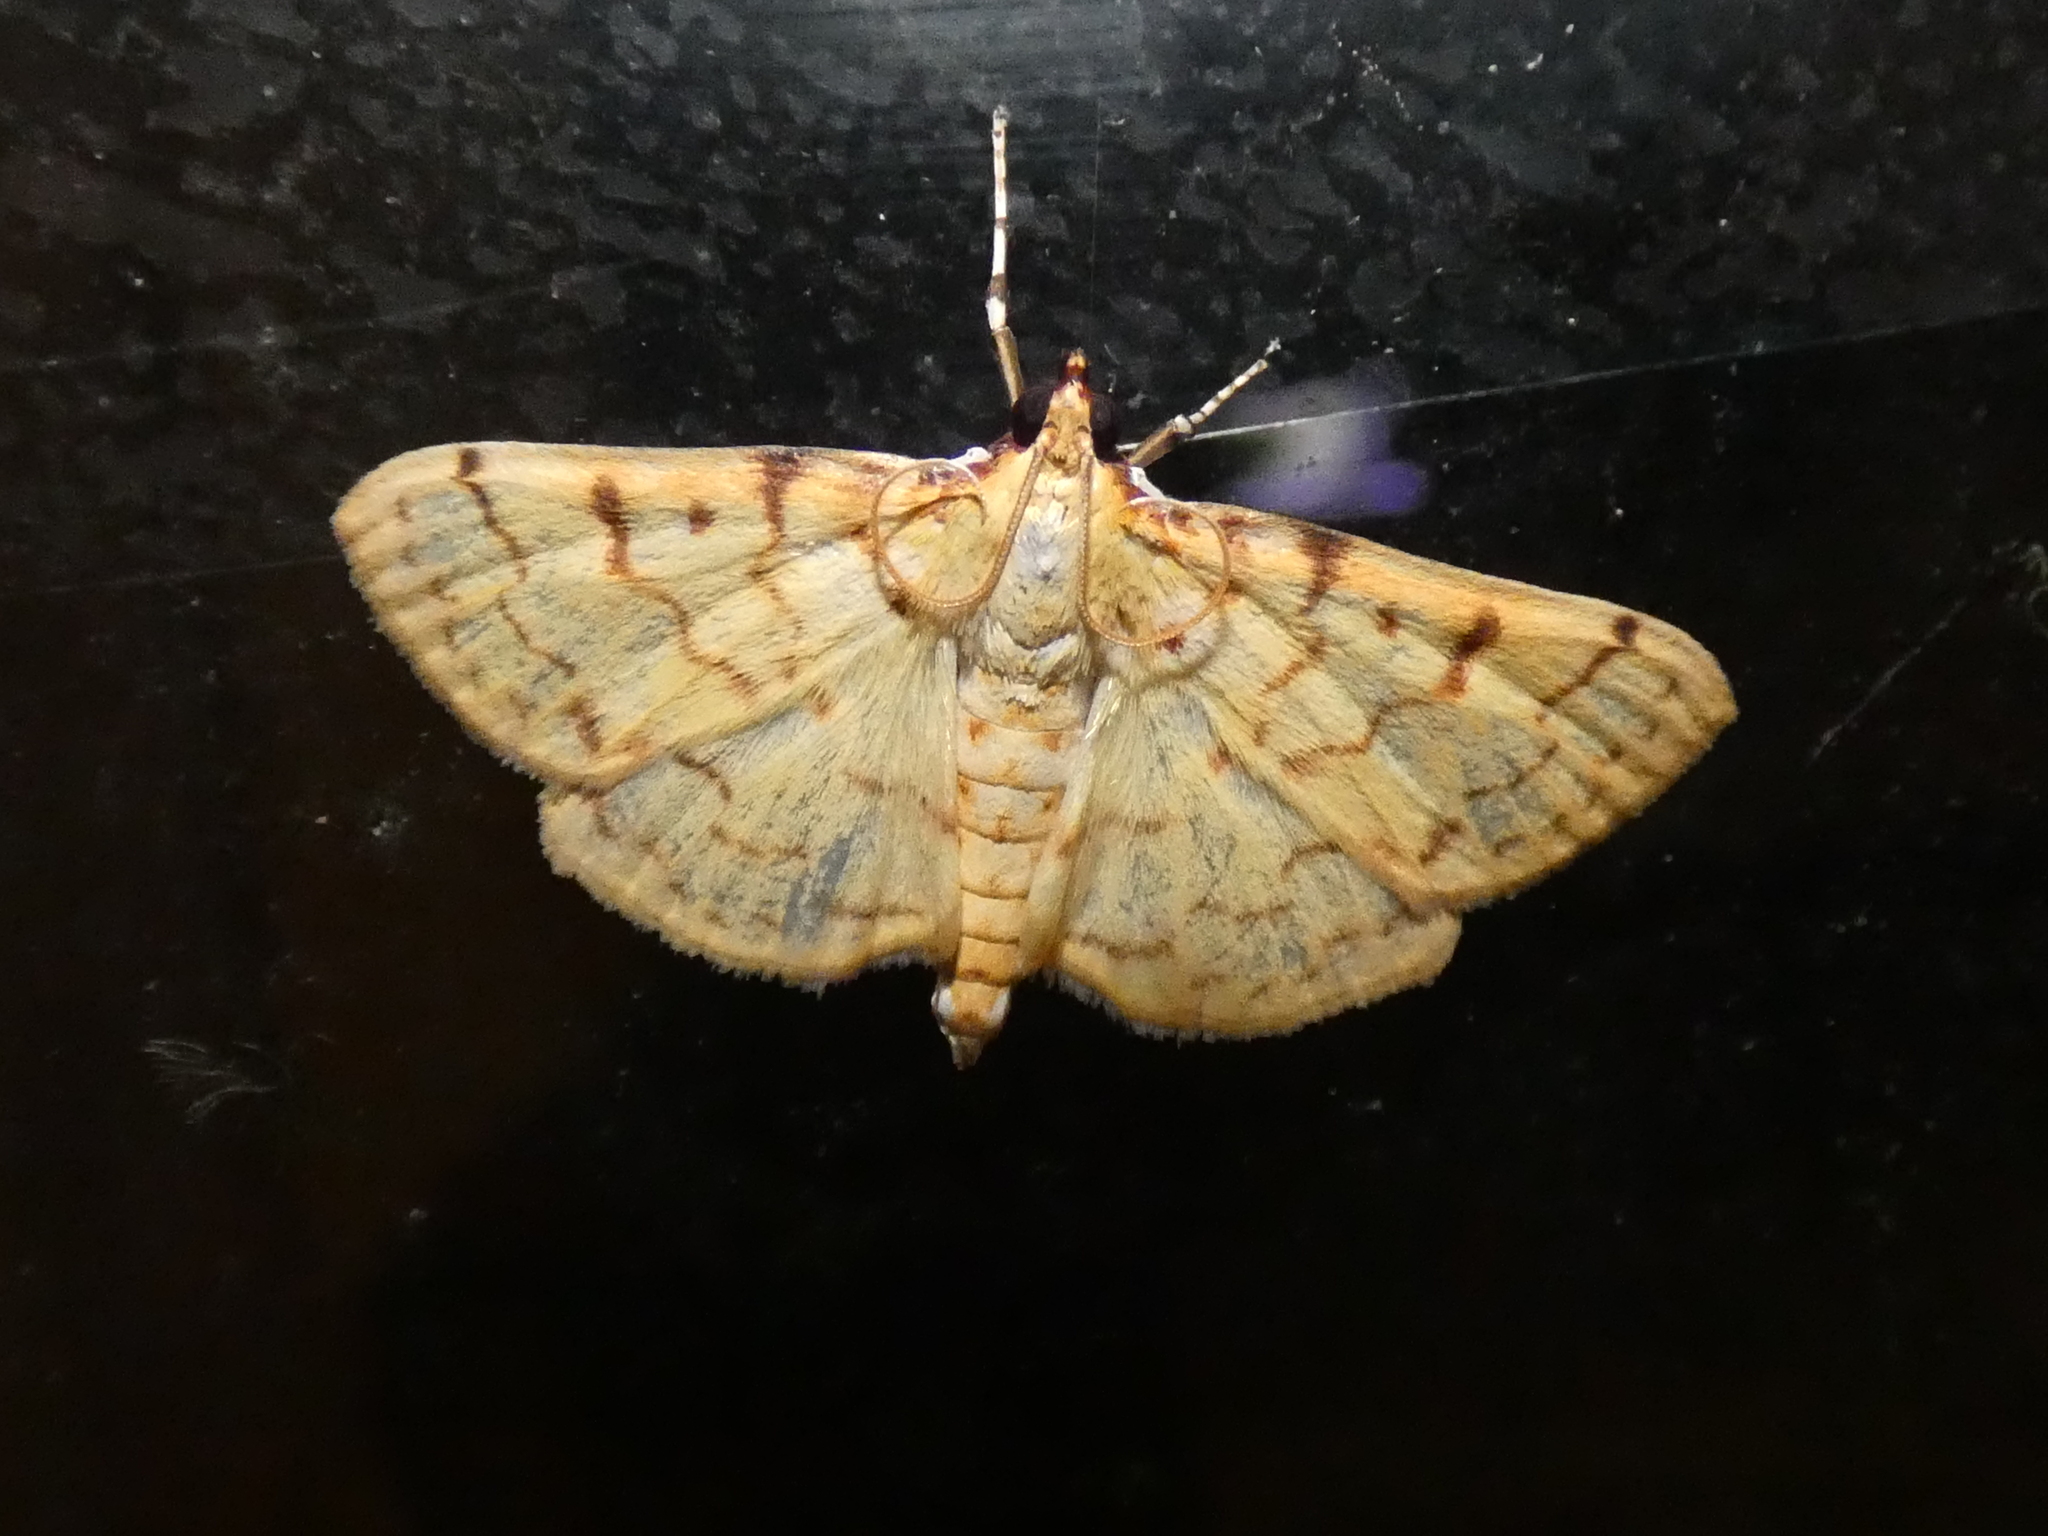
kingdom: Animalia
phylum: Arthropoda
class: Insecta
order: Lepidoptera
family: Crambidae
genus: Polygrammodes
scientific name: Polygrammodes flavidalis
